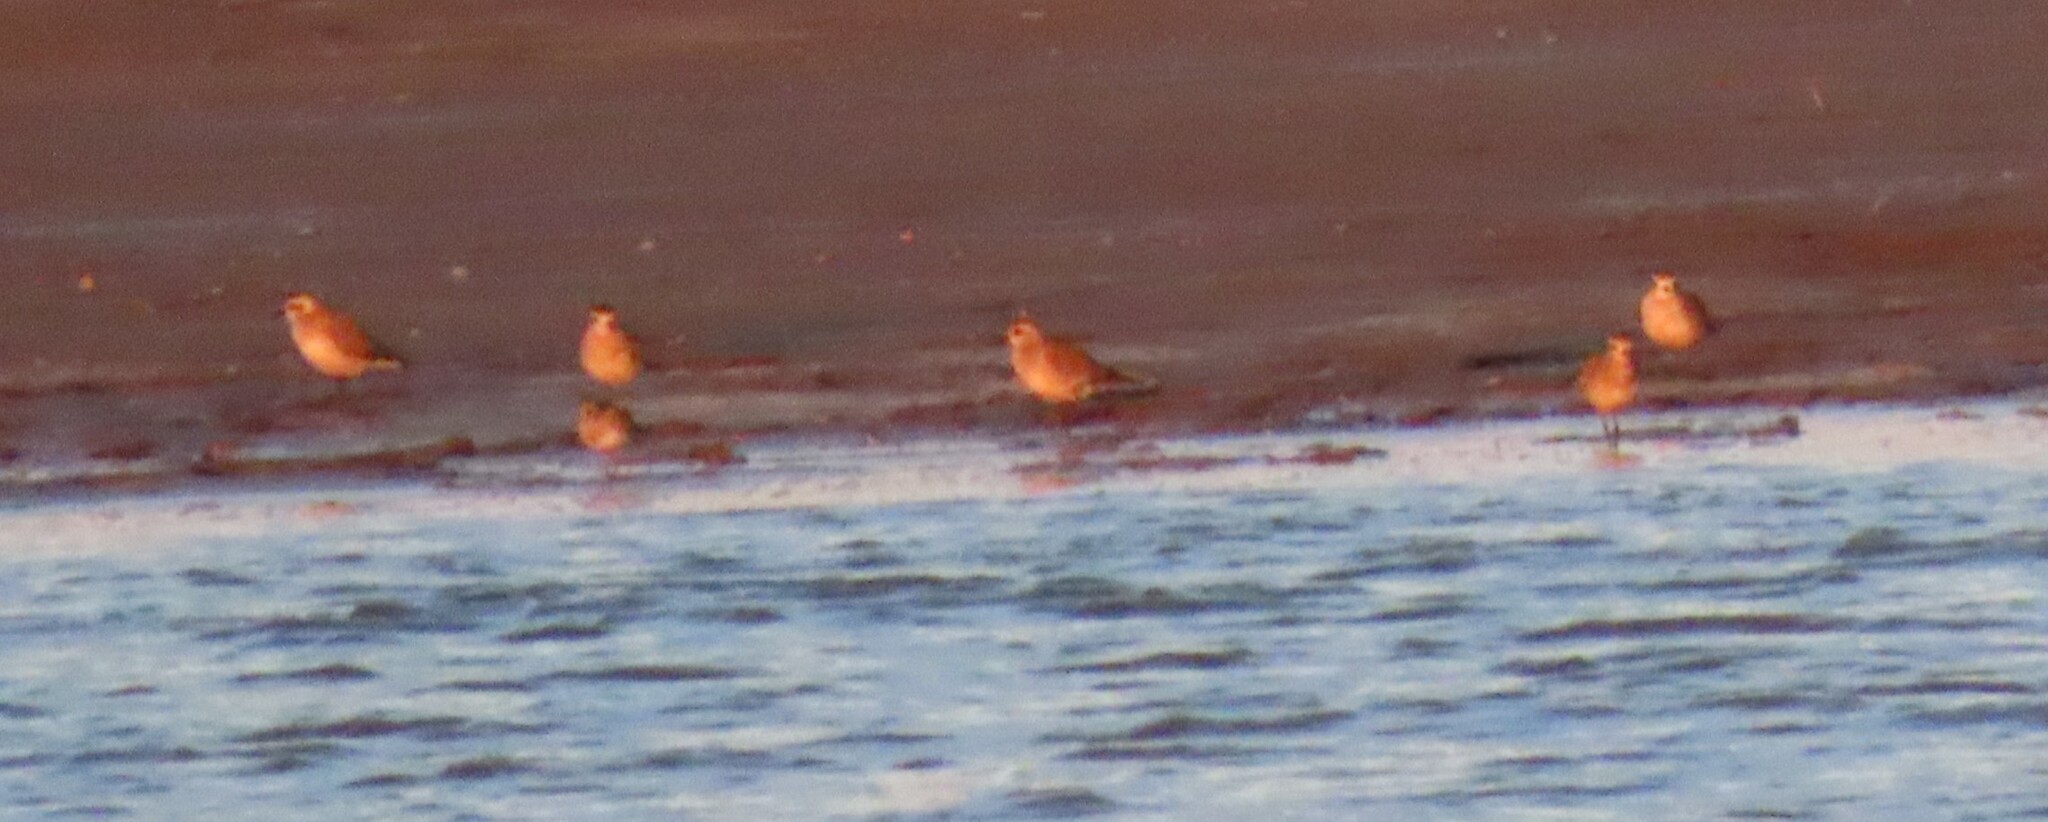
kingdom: Animalia
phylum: Chordata
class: Aves
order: Charadriiformes
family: Charadriidae
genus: Pluvialis
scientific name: Pluvialis dominica
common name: American golden plover
